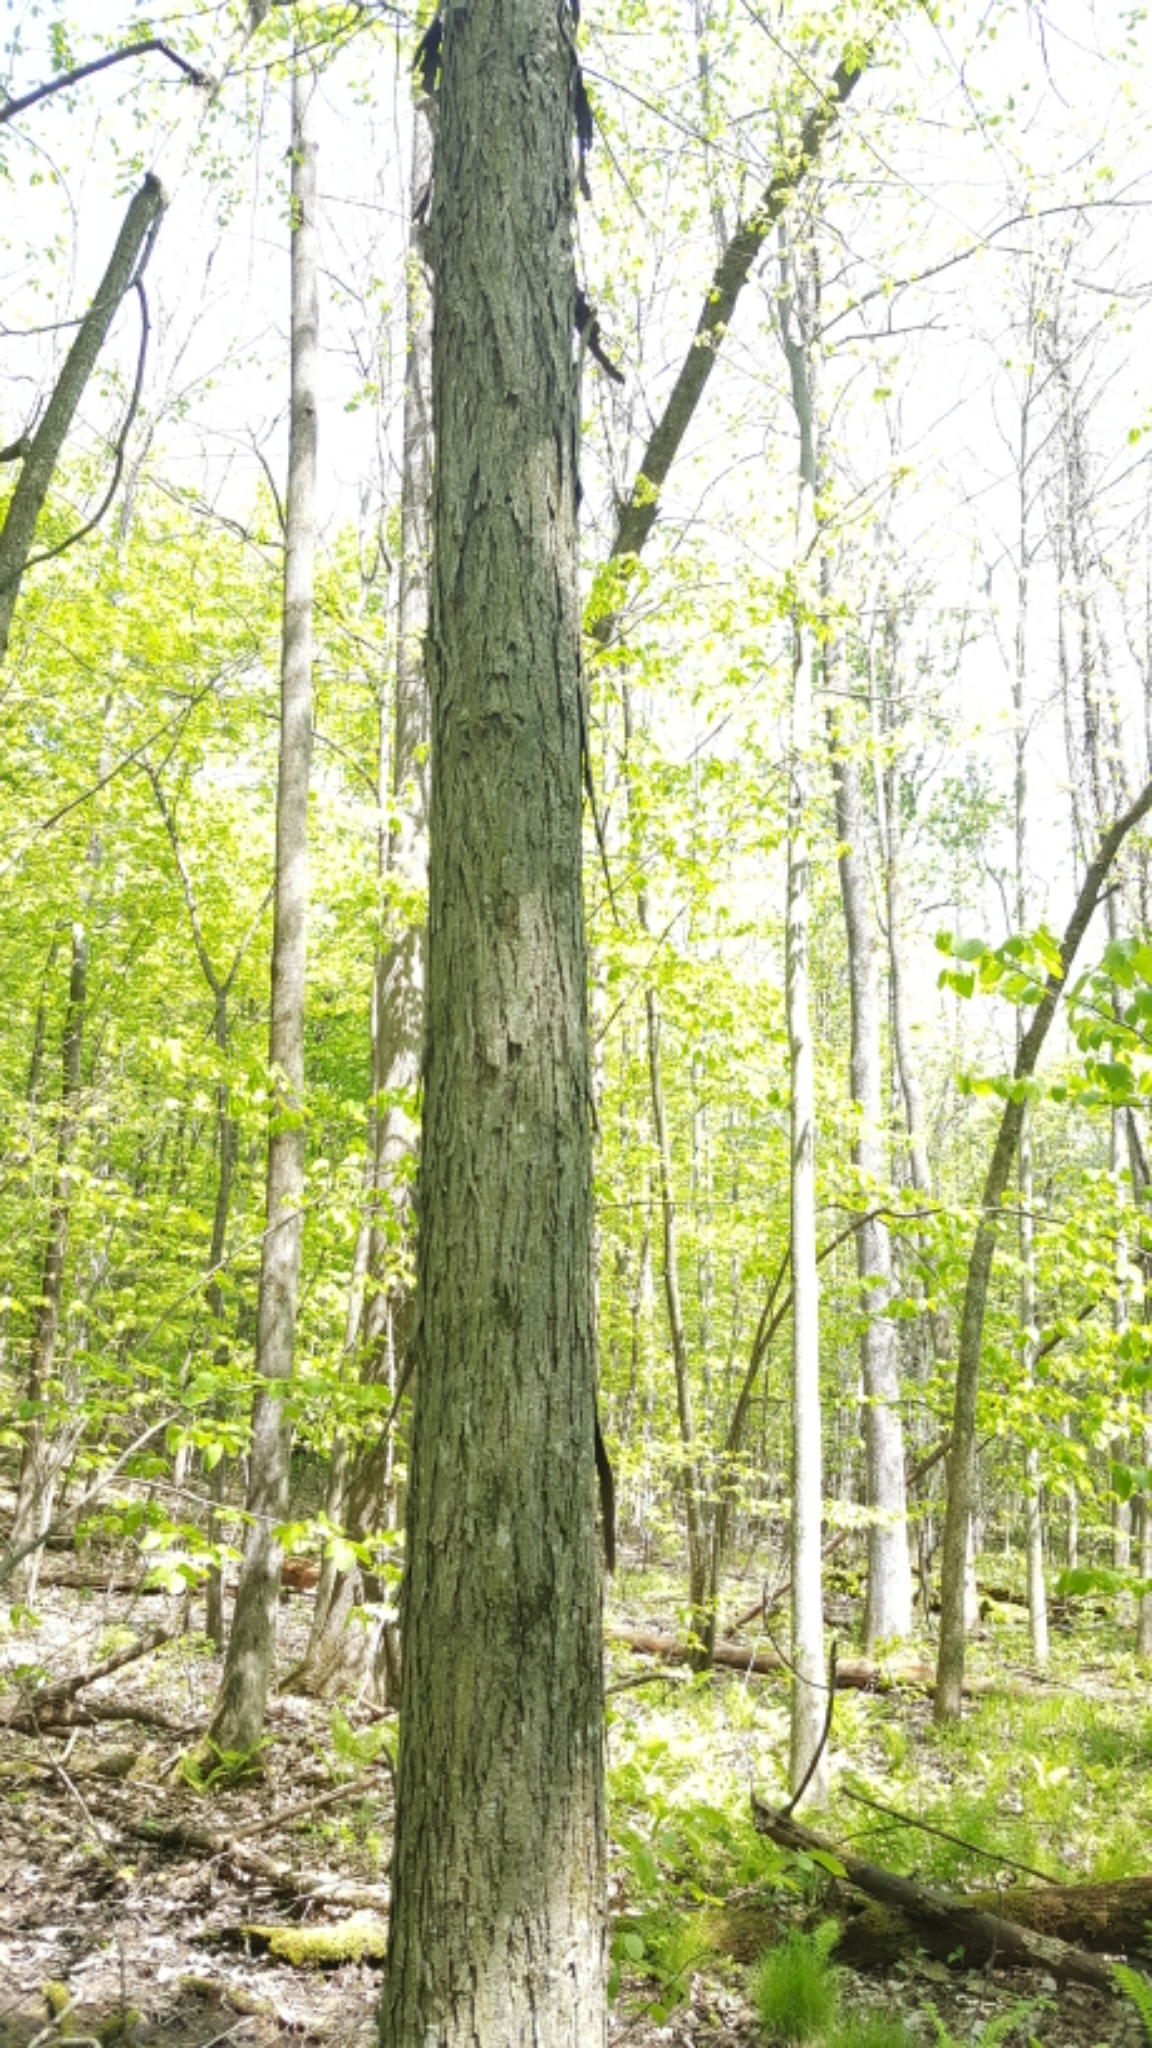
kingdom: Plantae
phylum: Tracheophyta
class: Magnoliopsida
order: Fagales
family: Juglandaceae
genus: Carya
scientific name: Carya ovata
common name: Shagbark hickory
